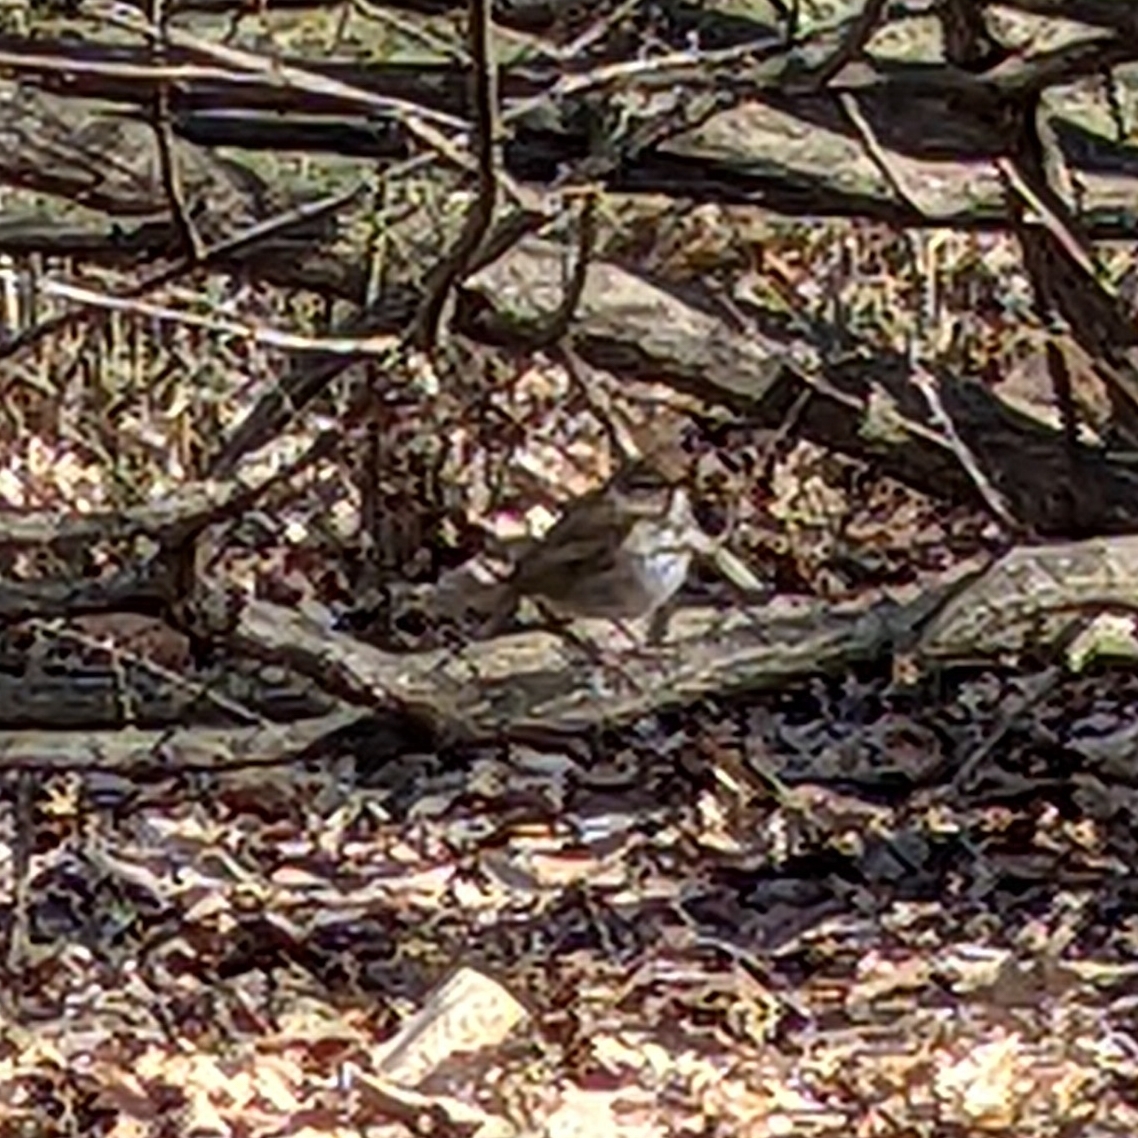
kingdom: Animalia
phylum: Chordata
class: Aves
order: Passeriformes
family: Turdidae
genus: Catharus
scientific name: Catharus guttatus
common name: Hermit thrush
